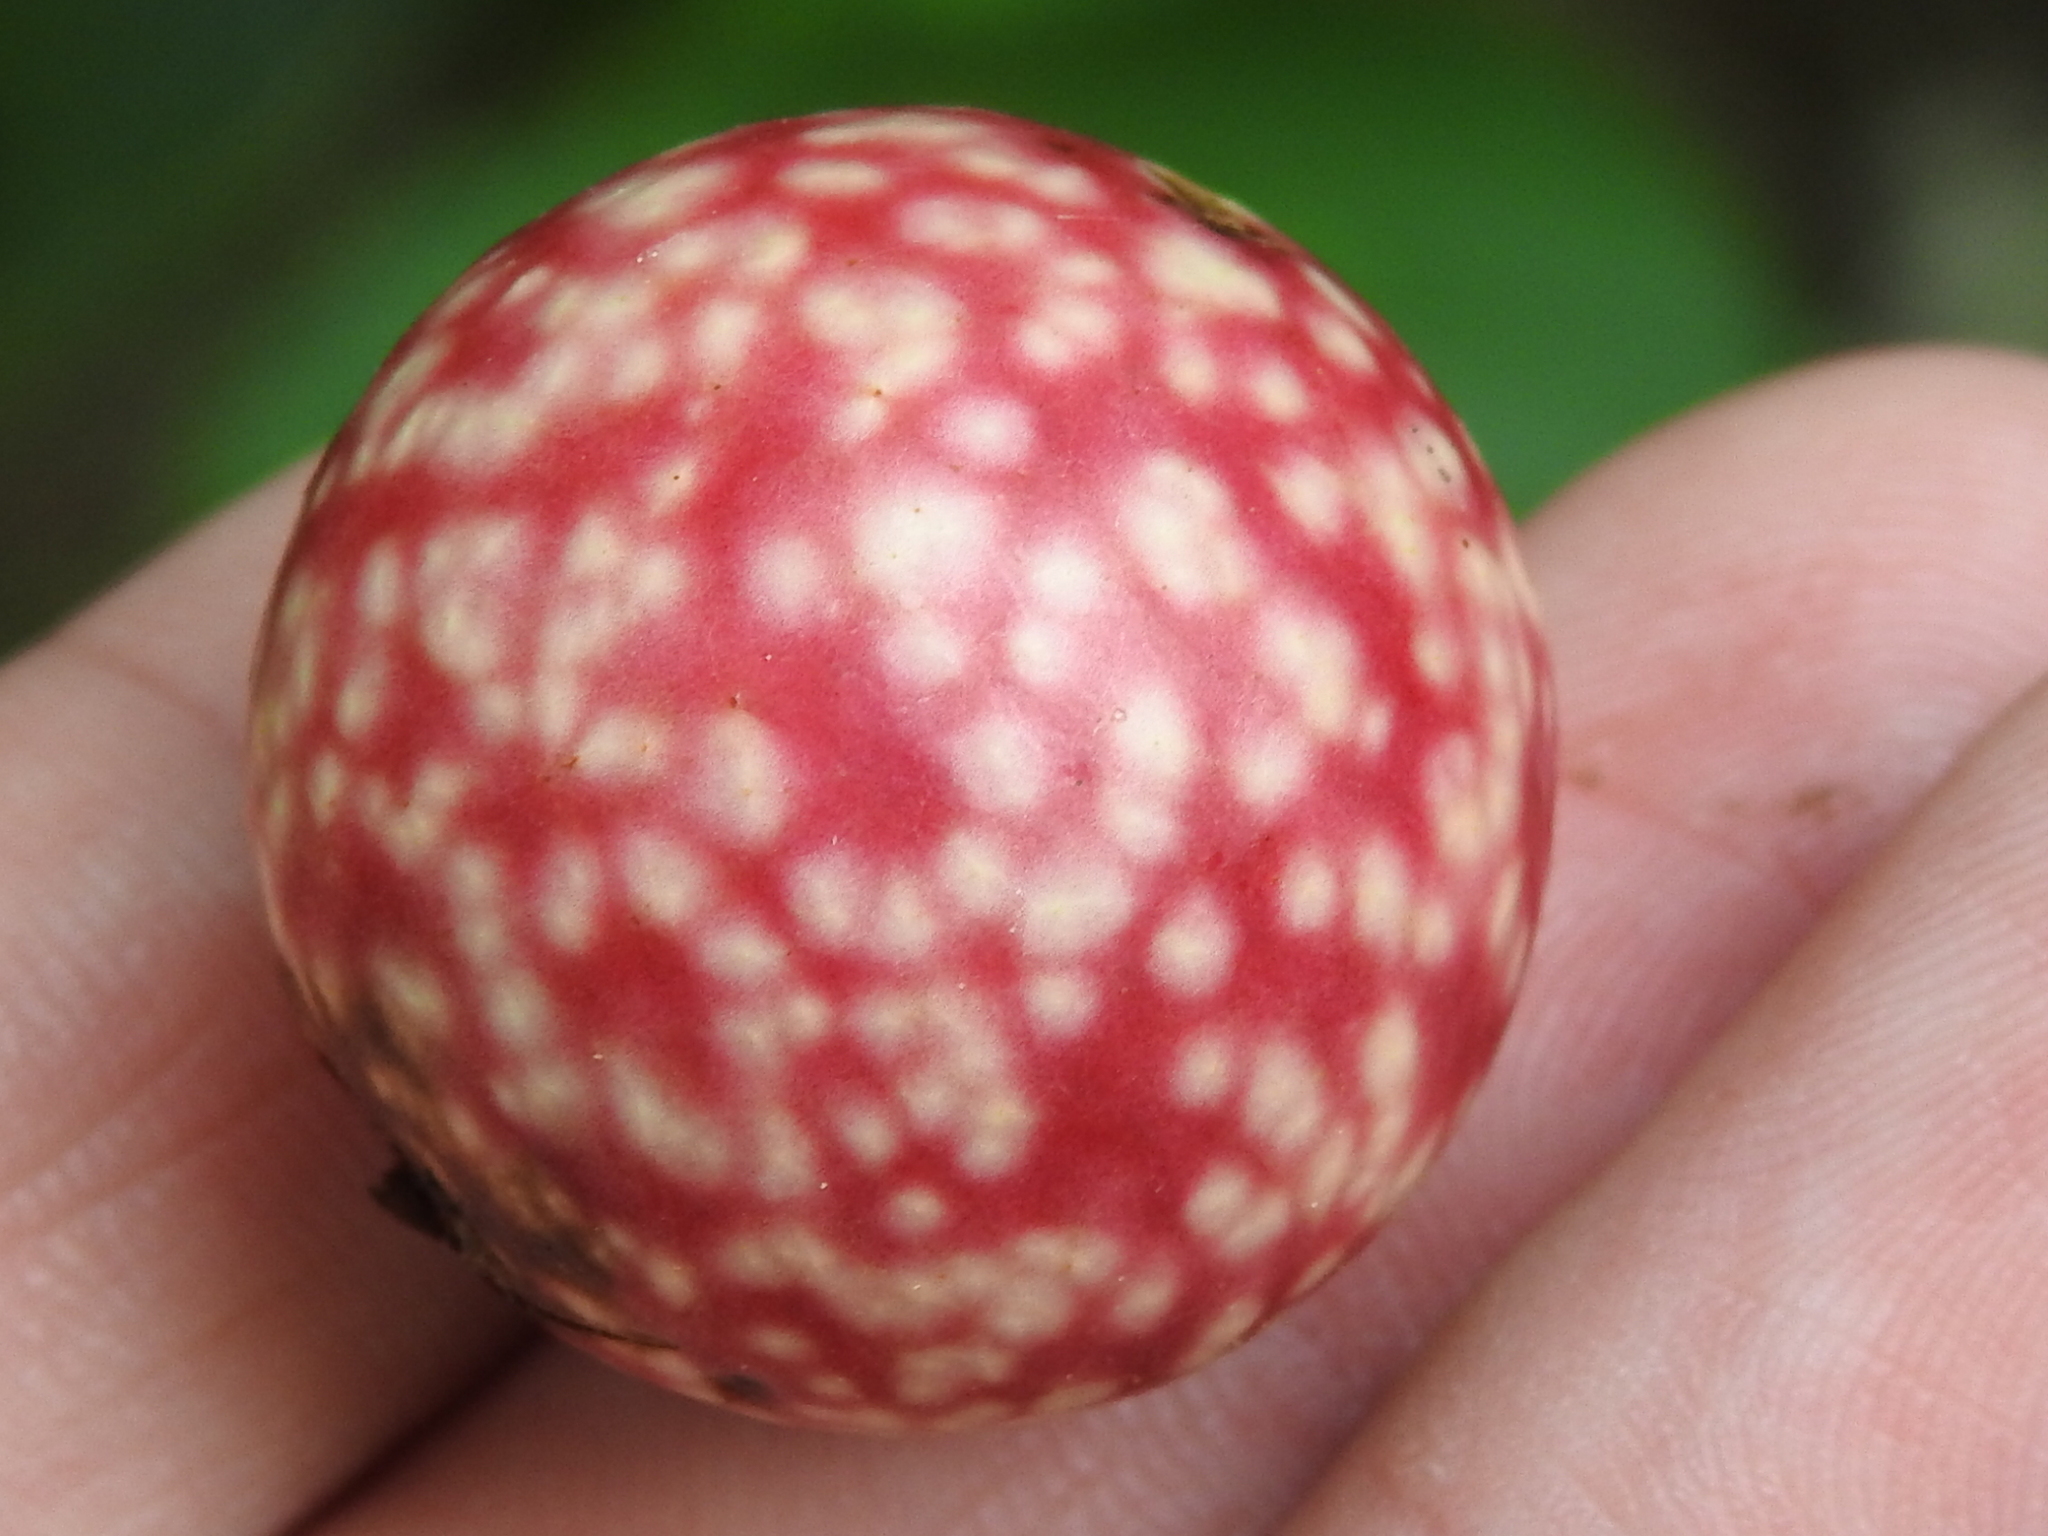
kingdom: Animalia
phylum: Arthropoda
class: Insecta
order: Hymenoptera
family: Cynipidae
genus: Amphibolips
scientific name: Amphibolips
